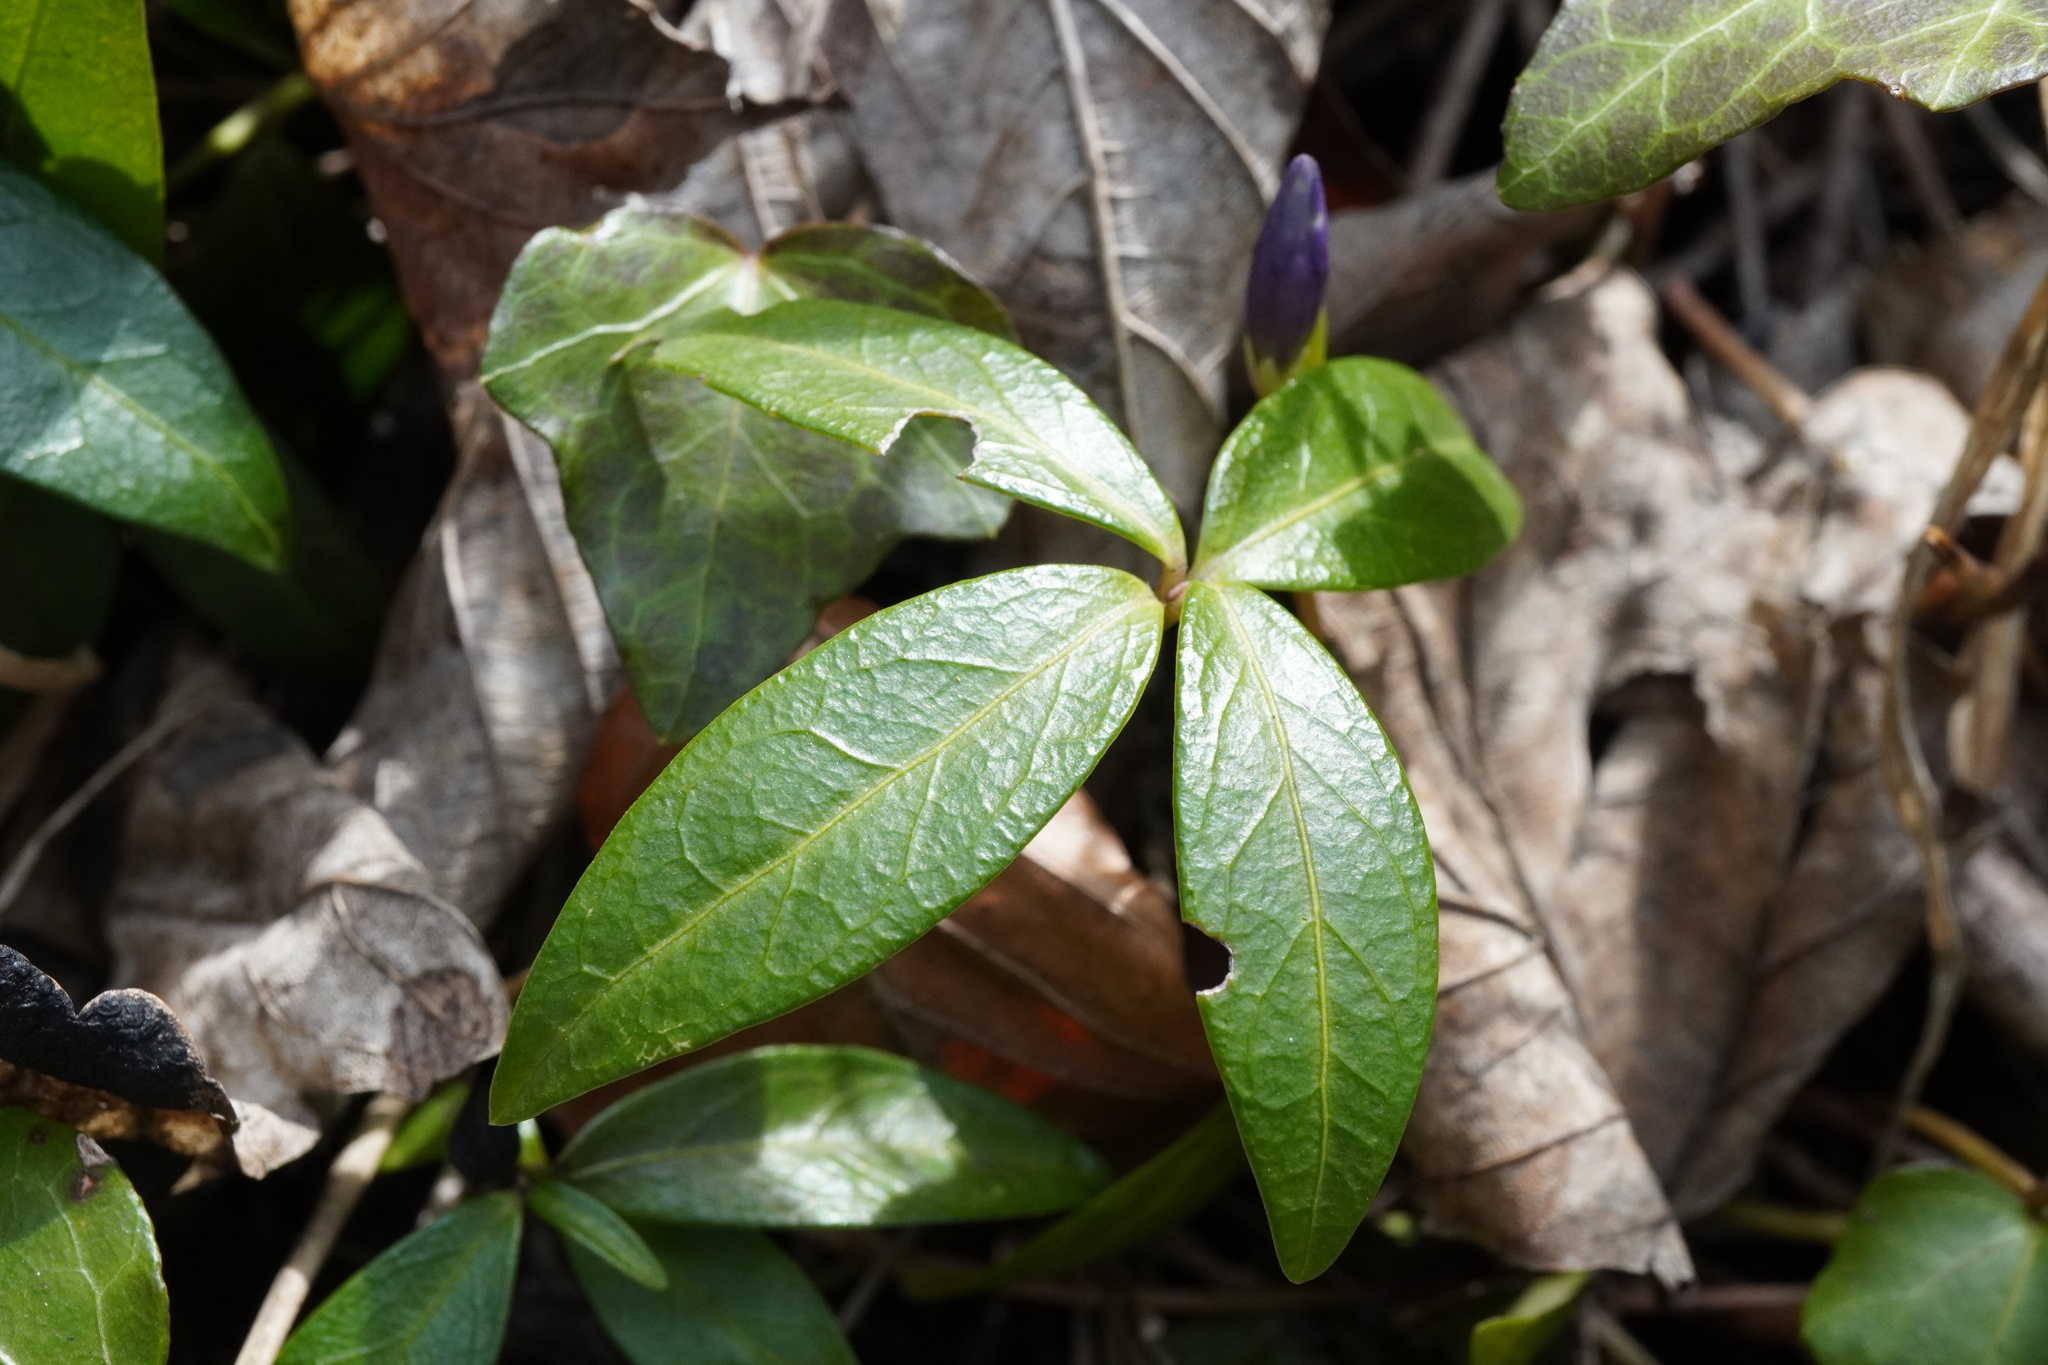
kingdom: Plantae
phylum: Tracheophyta
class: Magnoliopsida
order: Gentianales
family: Apocynaceae
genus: Vinca
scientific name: Vinca minor
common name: Lesser periwinkle
